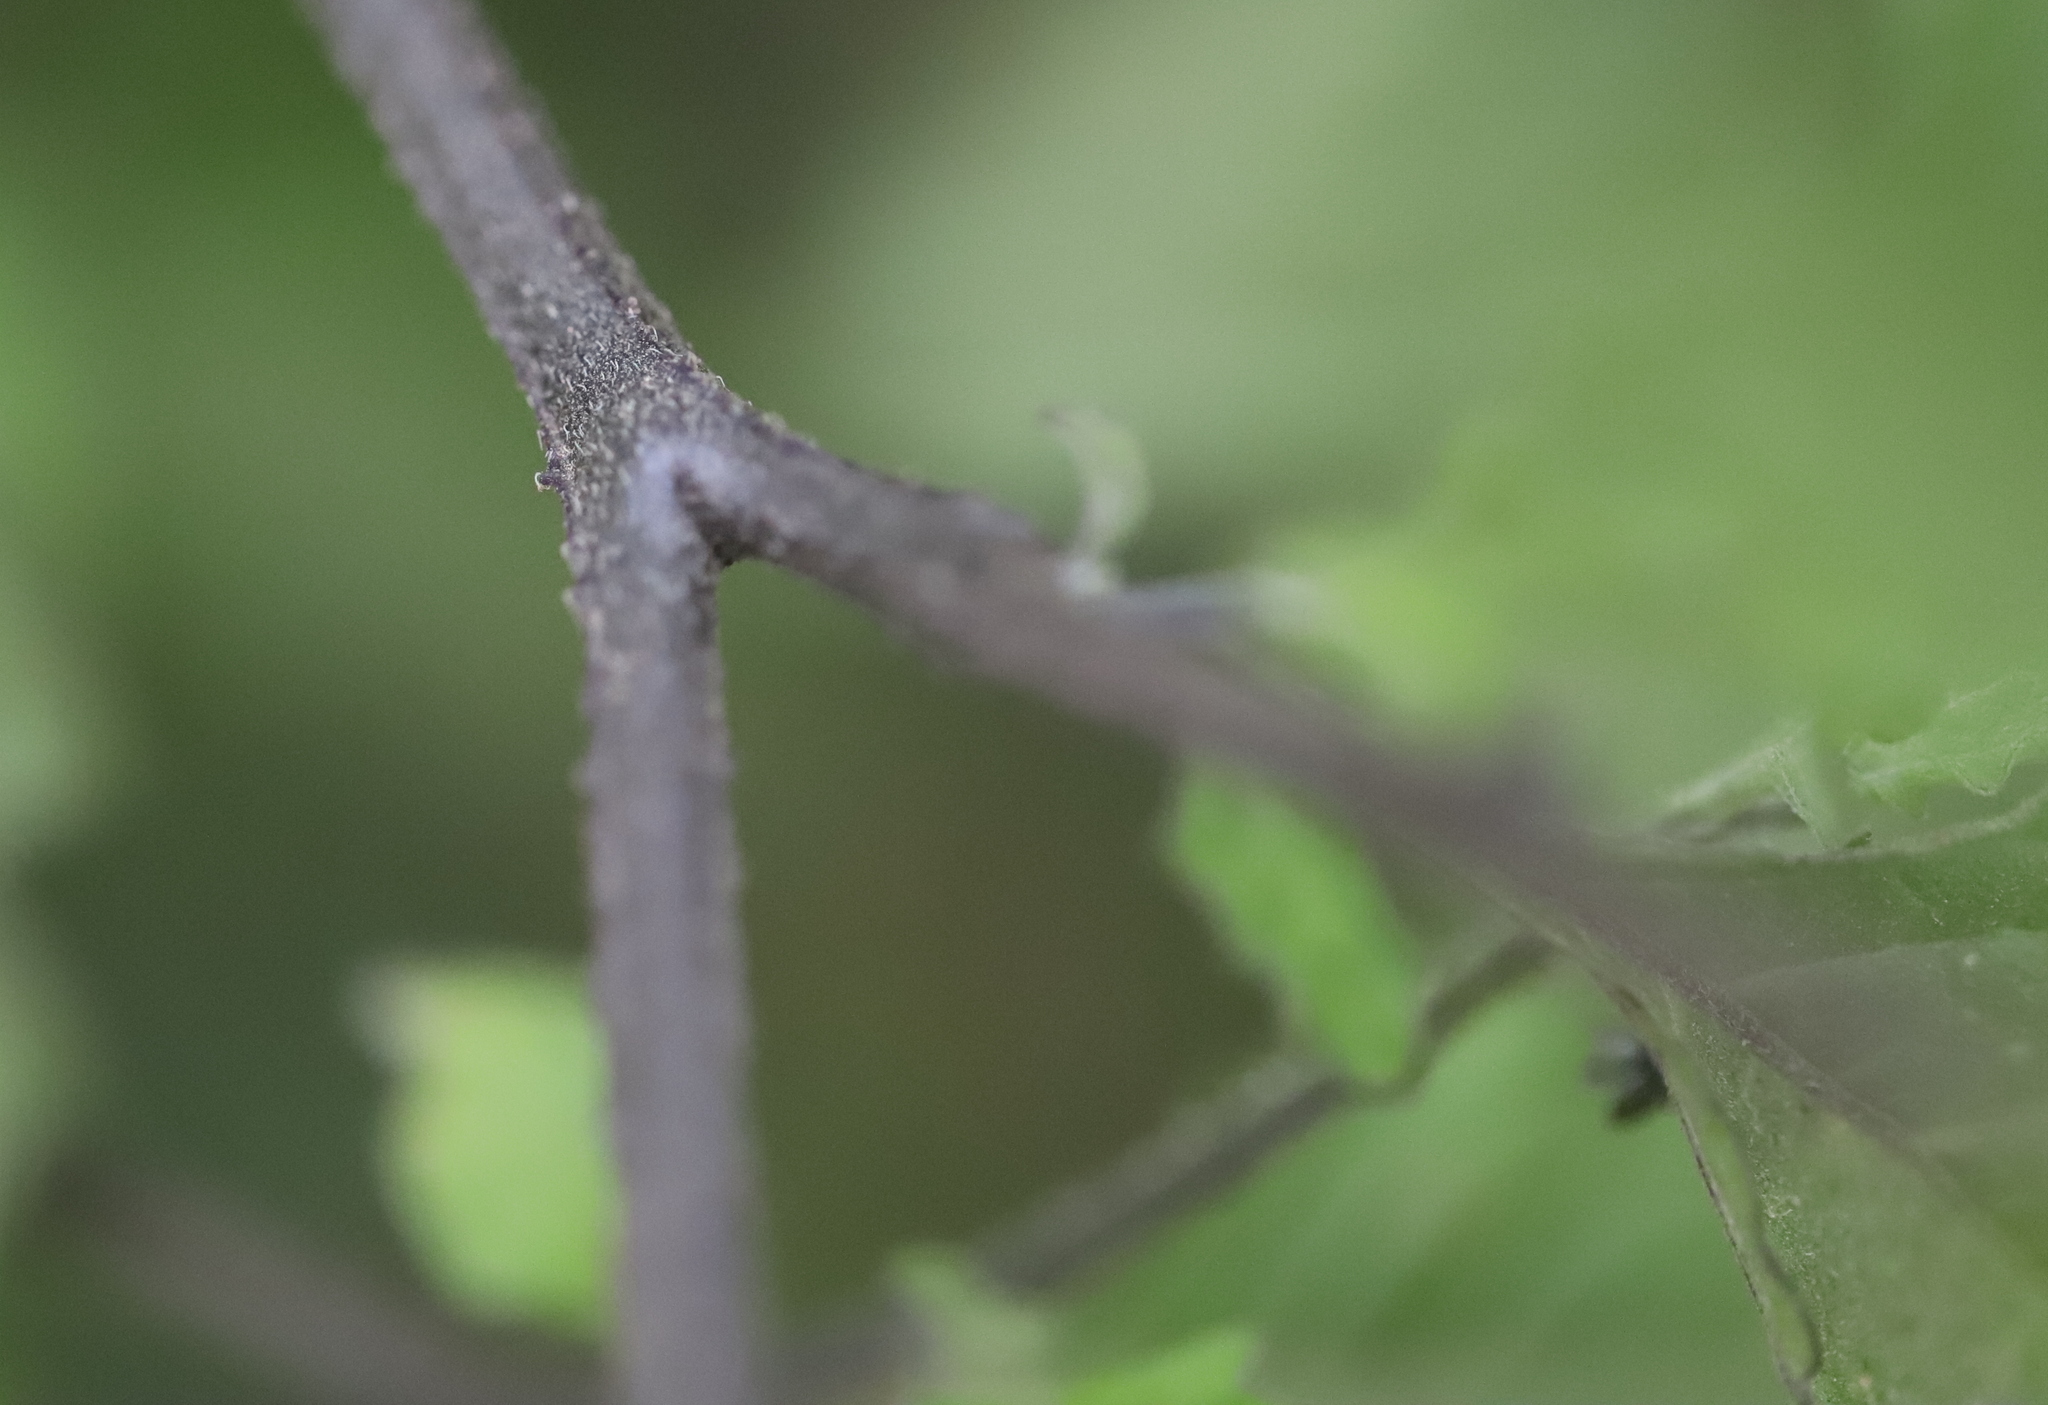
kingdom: Plantae
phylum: Tracheophyta
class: Magnoliopsida
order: Solanales
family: Solanaceae
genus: Solanum
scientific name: Solanum furcatum
